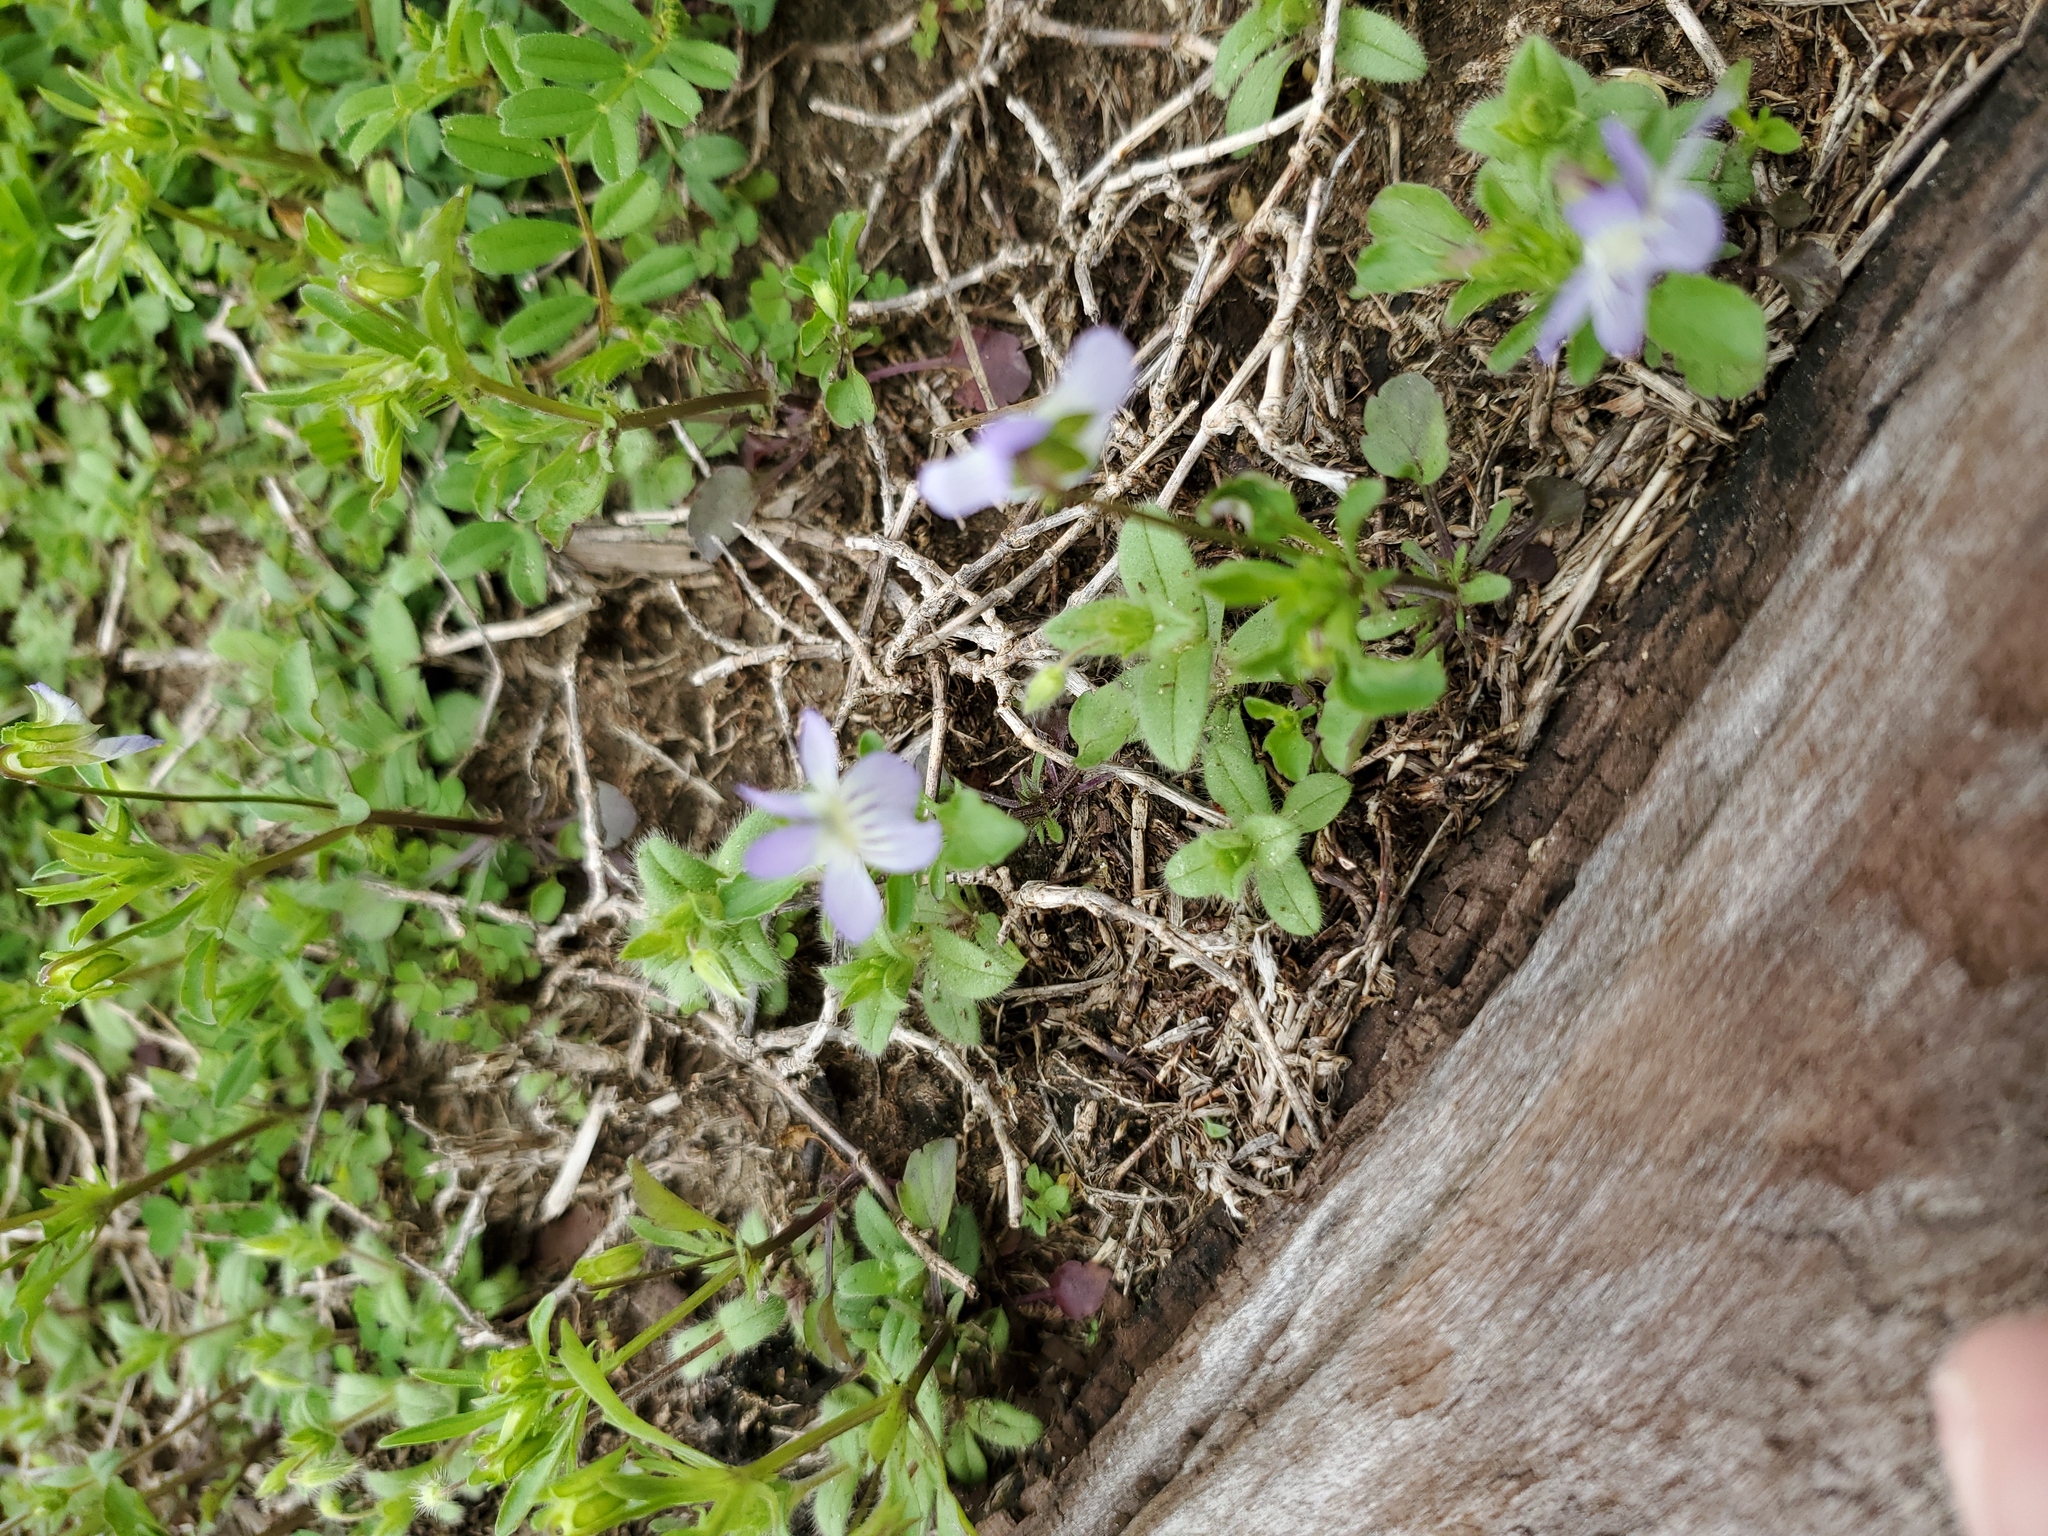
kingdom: Plantae
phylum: Tracheophyta
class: Magnoliopsida
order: Malpighiales
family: Violaceae
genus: Viola
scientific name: Viola rafinesquei
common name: American field pansy
